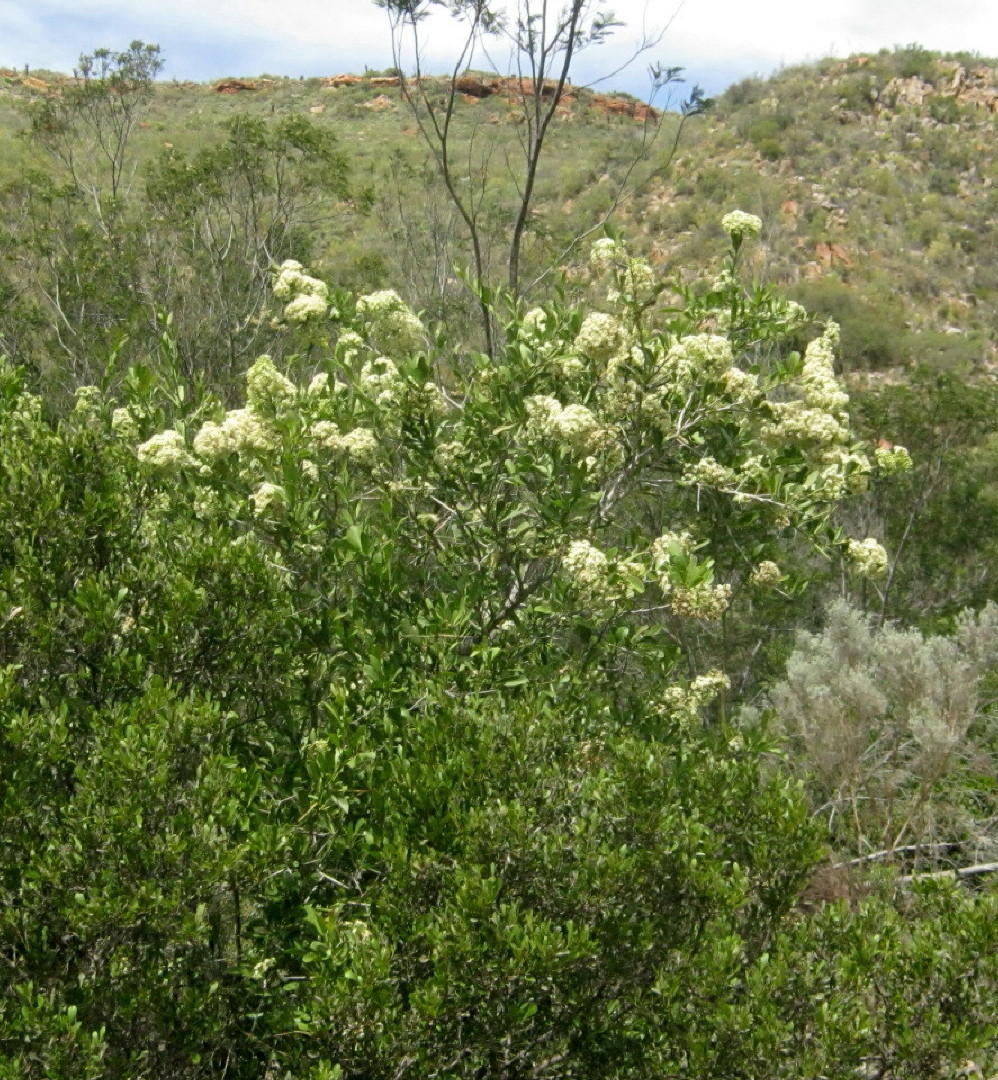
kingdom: Plantae
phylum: Tracheophyta
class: Magnoliopsida
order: Celastrales
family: Celastraceae
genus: Gymnosporia
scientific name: Gymnosporia buxifolia
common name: Common spike-thorn
